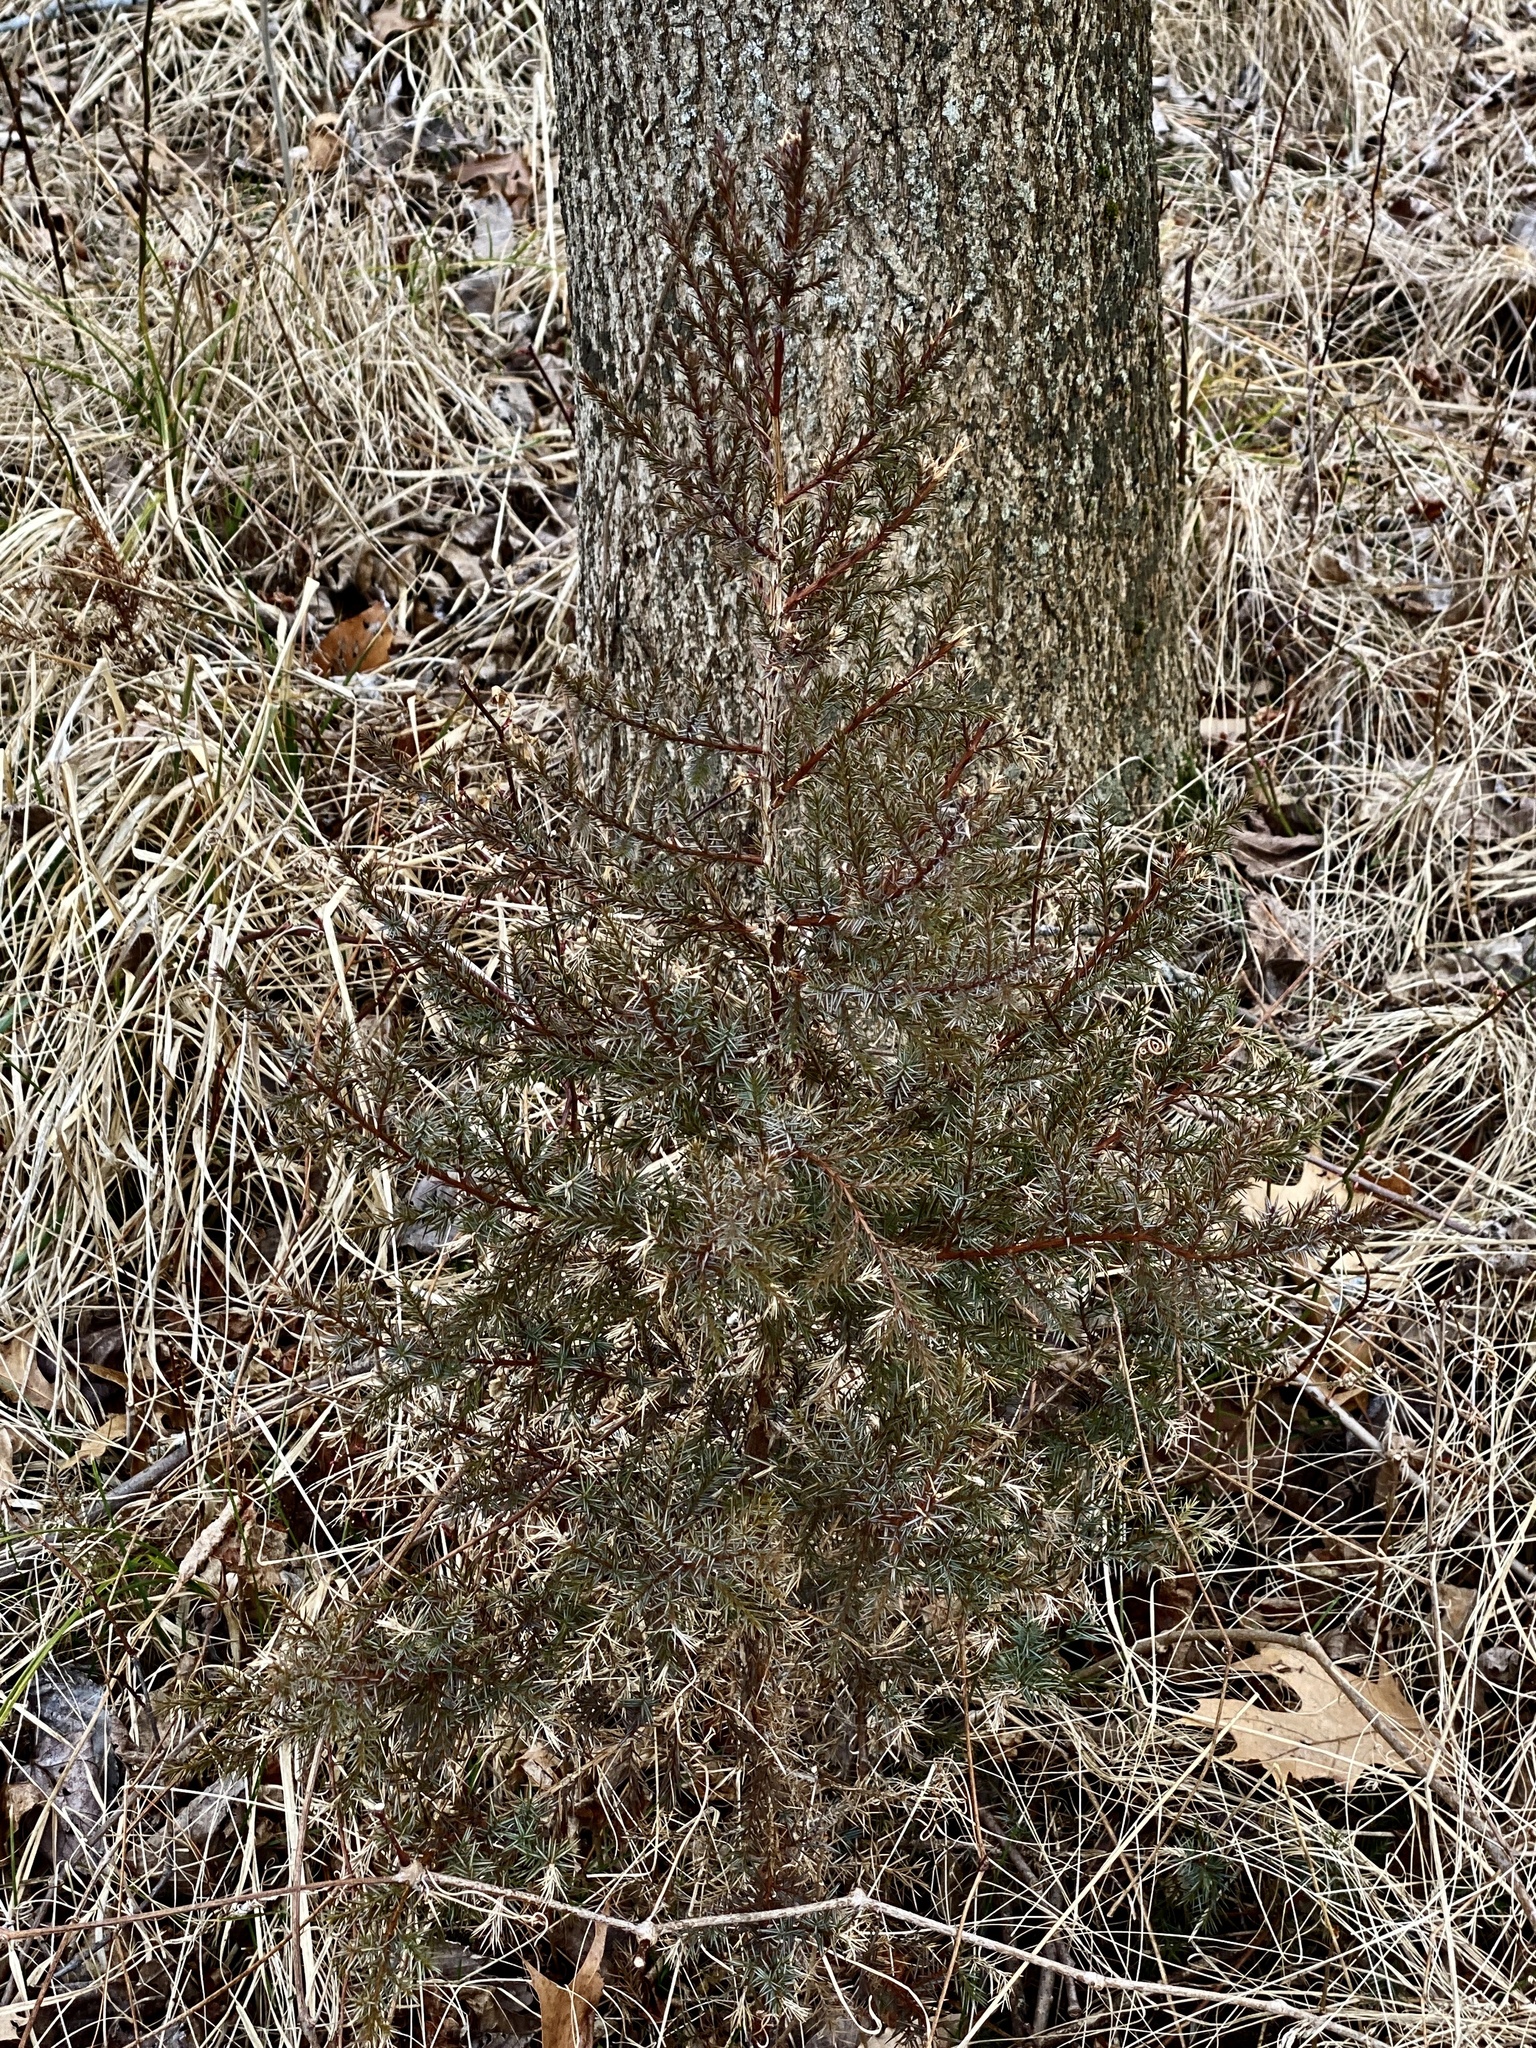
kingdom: Plantae
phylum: Tracheophyta
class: Pinopsida
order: Pinales
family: Cupressaceae
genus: Juniperus
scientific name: Juniperus virginiana
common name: Red juniper
